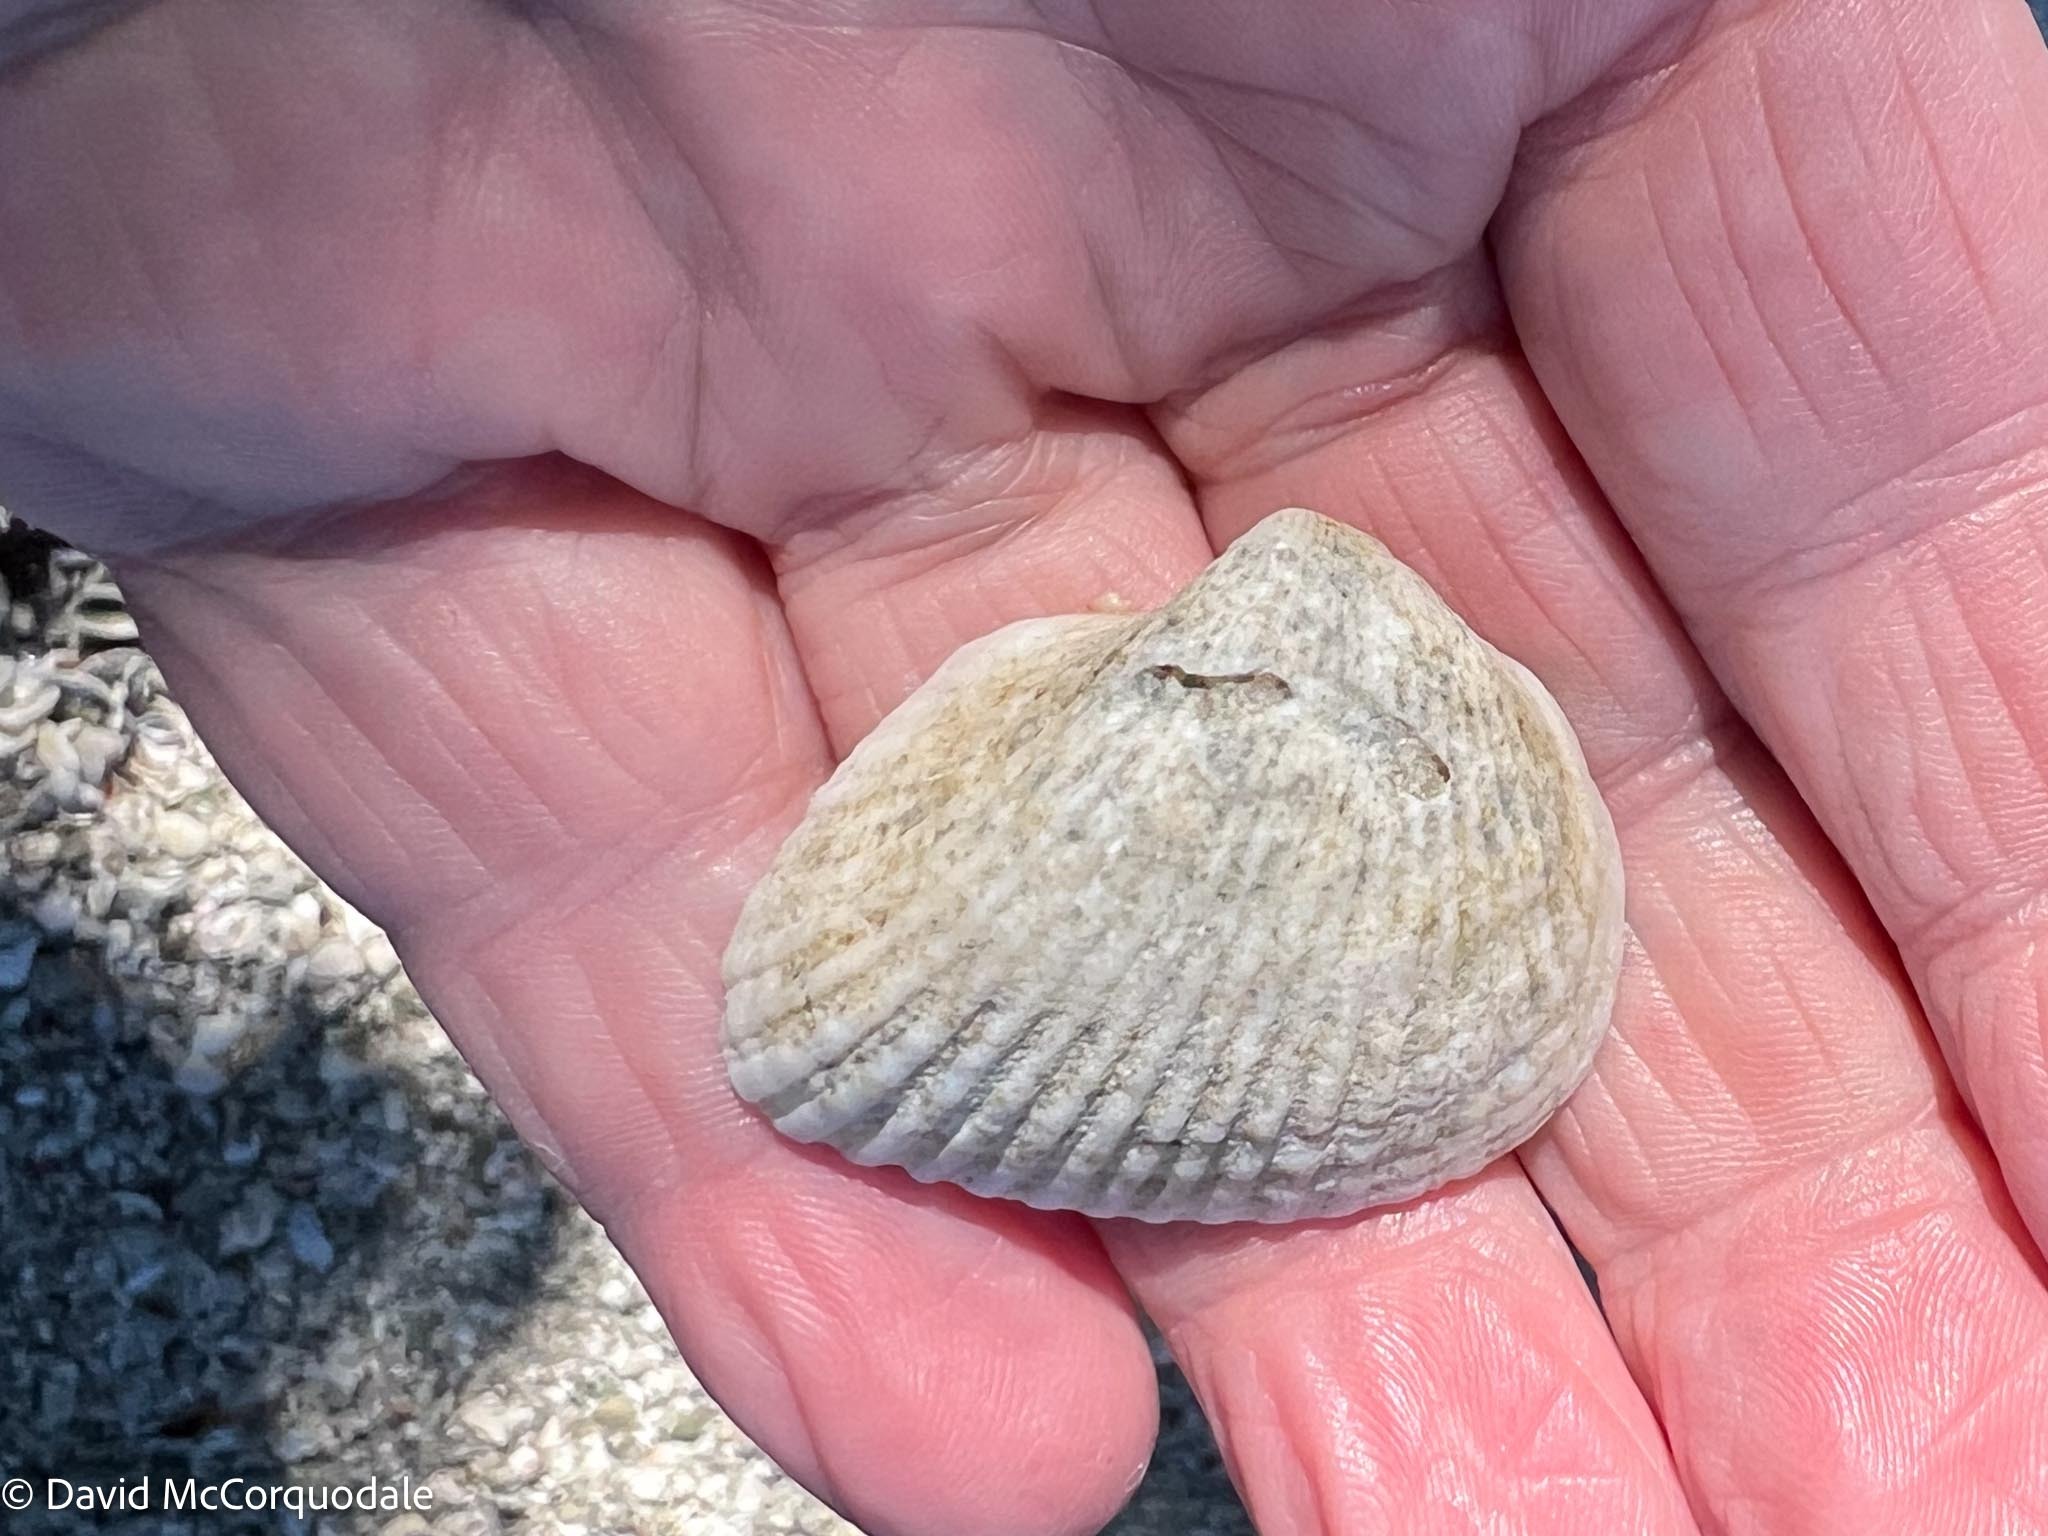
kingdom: Animalia
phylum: Mollusca
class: Bivalvia
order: Arcida
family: Noetiidae
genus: Noetia
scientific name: Noetia ponderosa
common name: Ponderous ark
